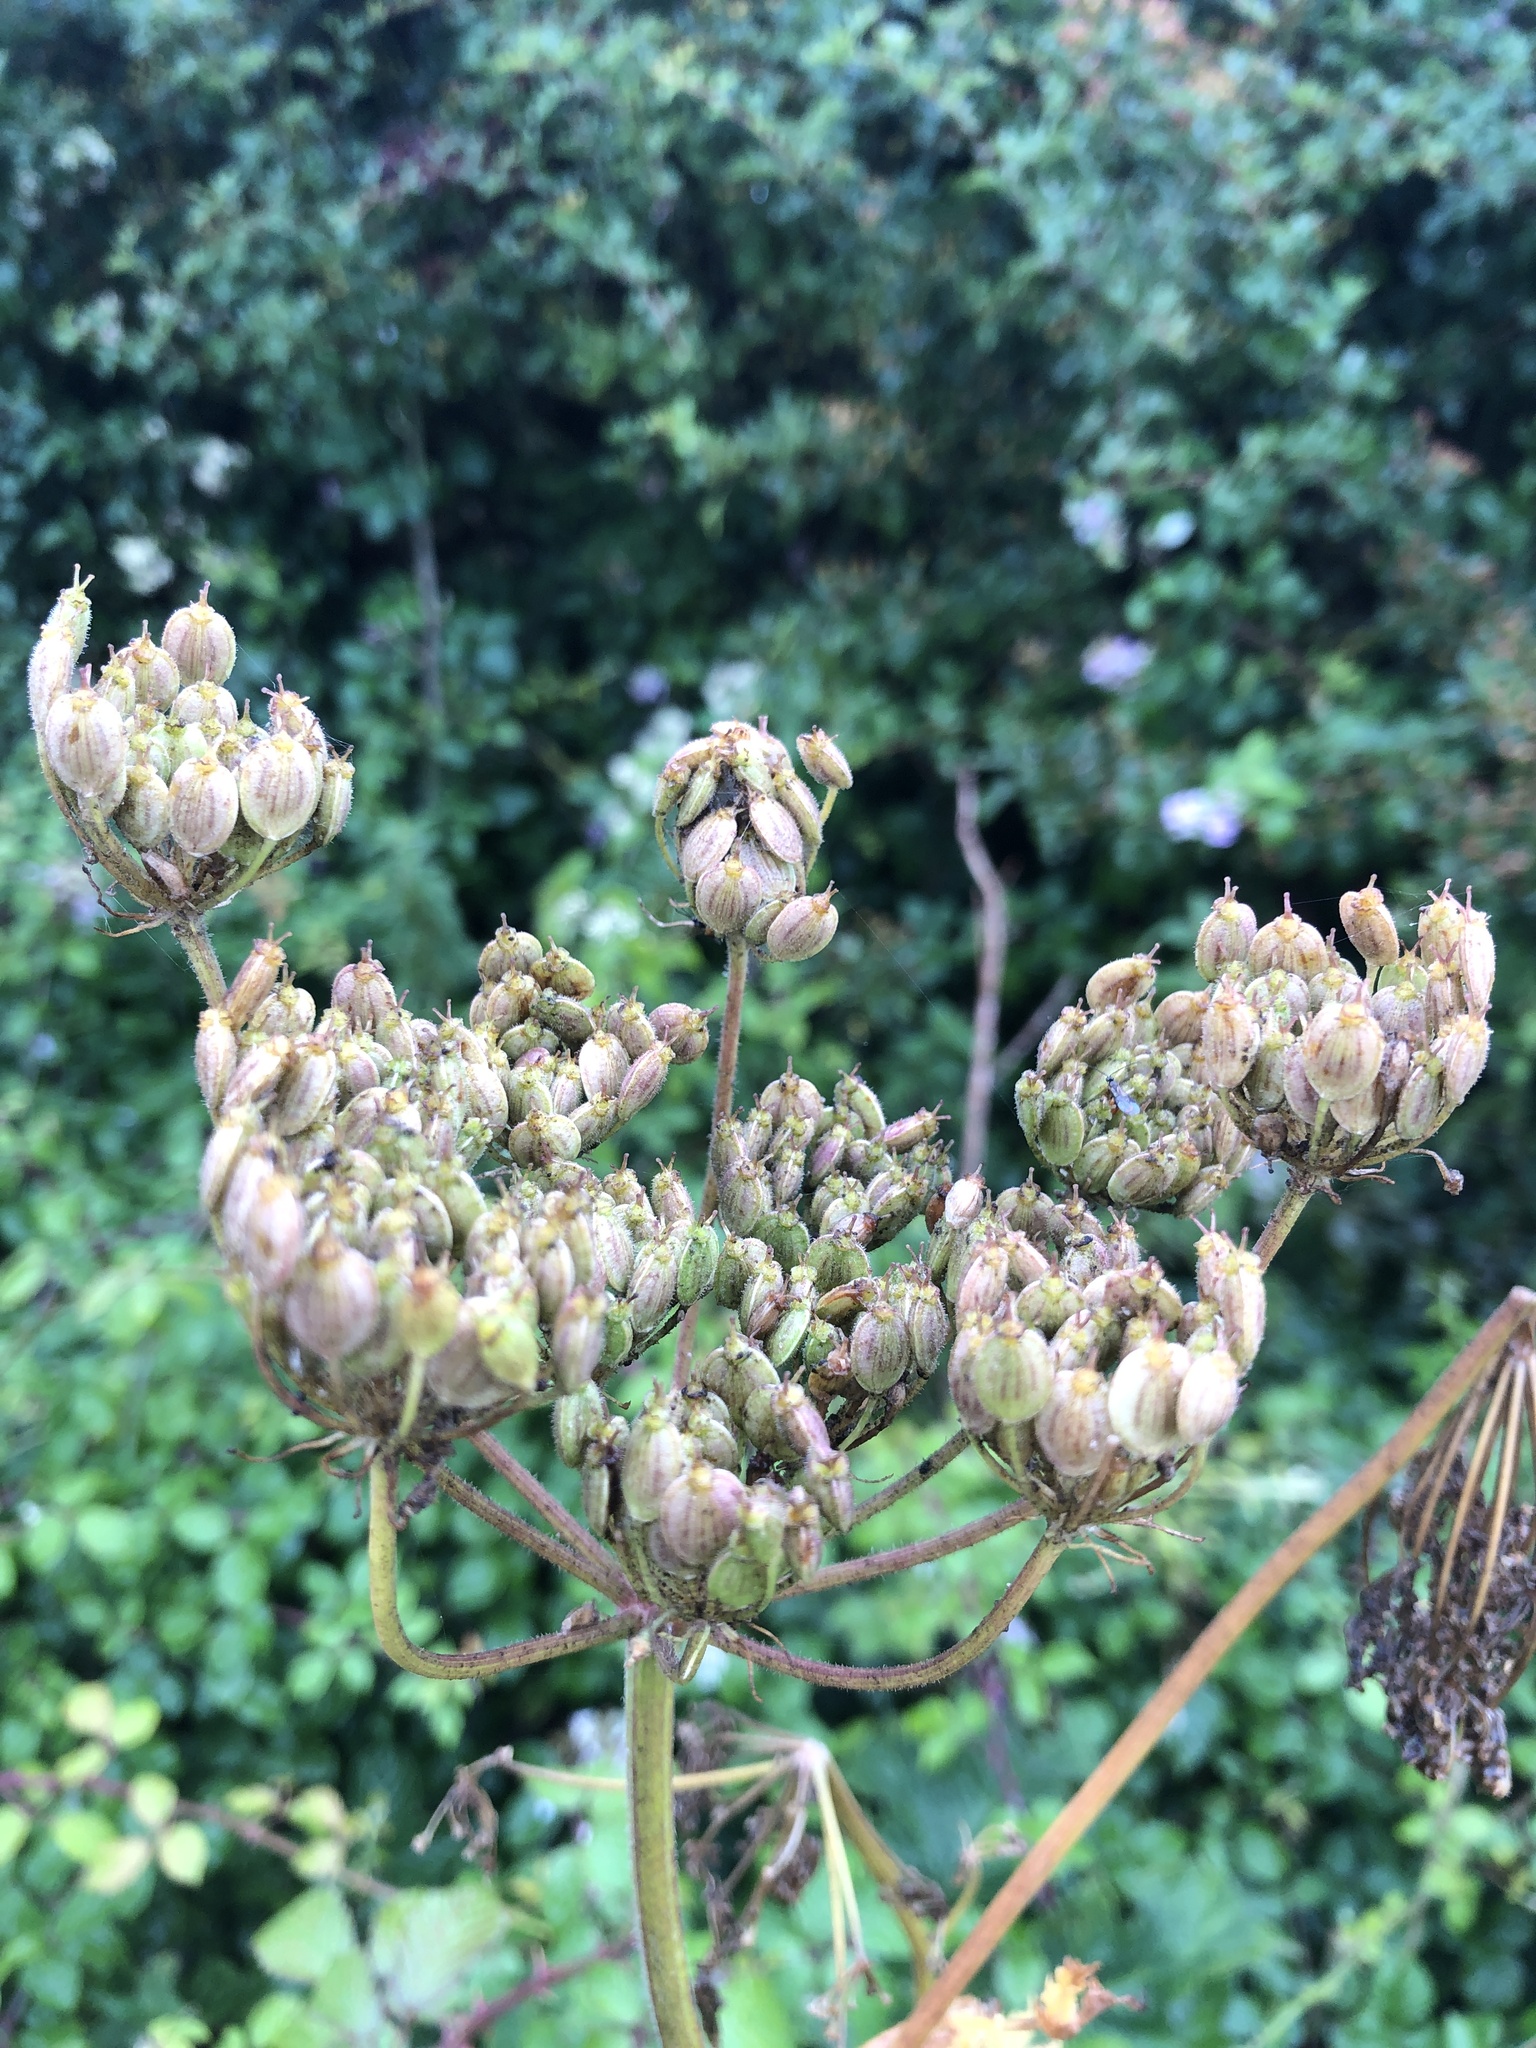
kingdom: Plantae
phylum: Tracheophyta
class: Magnoliopsida
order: Apiales
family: Apiaceae
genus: Heracleum
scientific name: Heracleum sphondylium
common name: Hogweed
